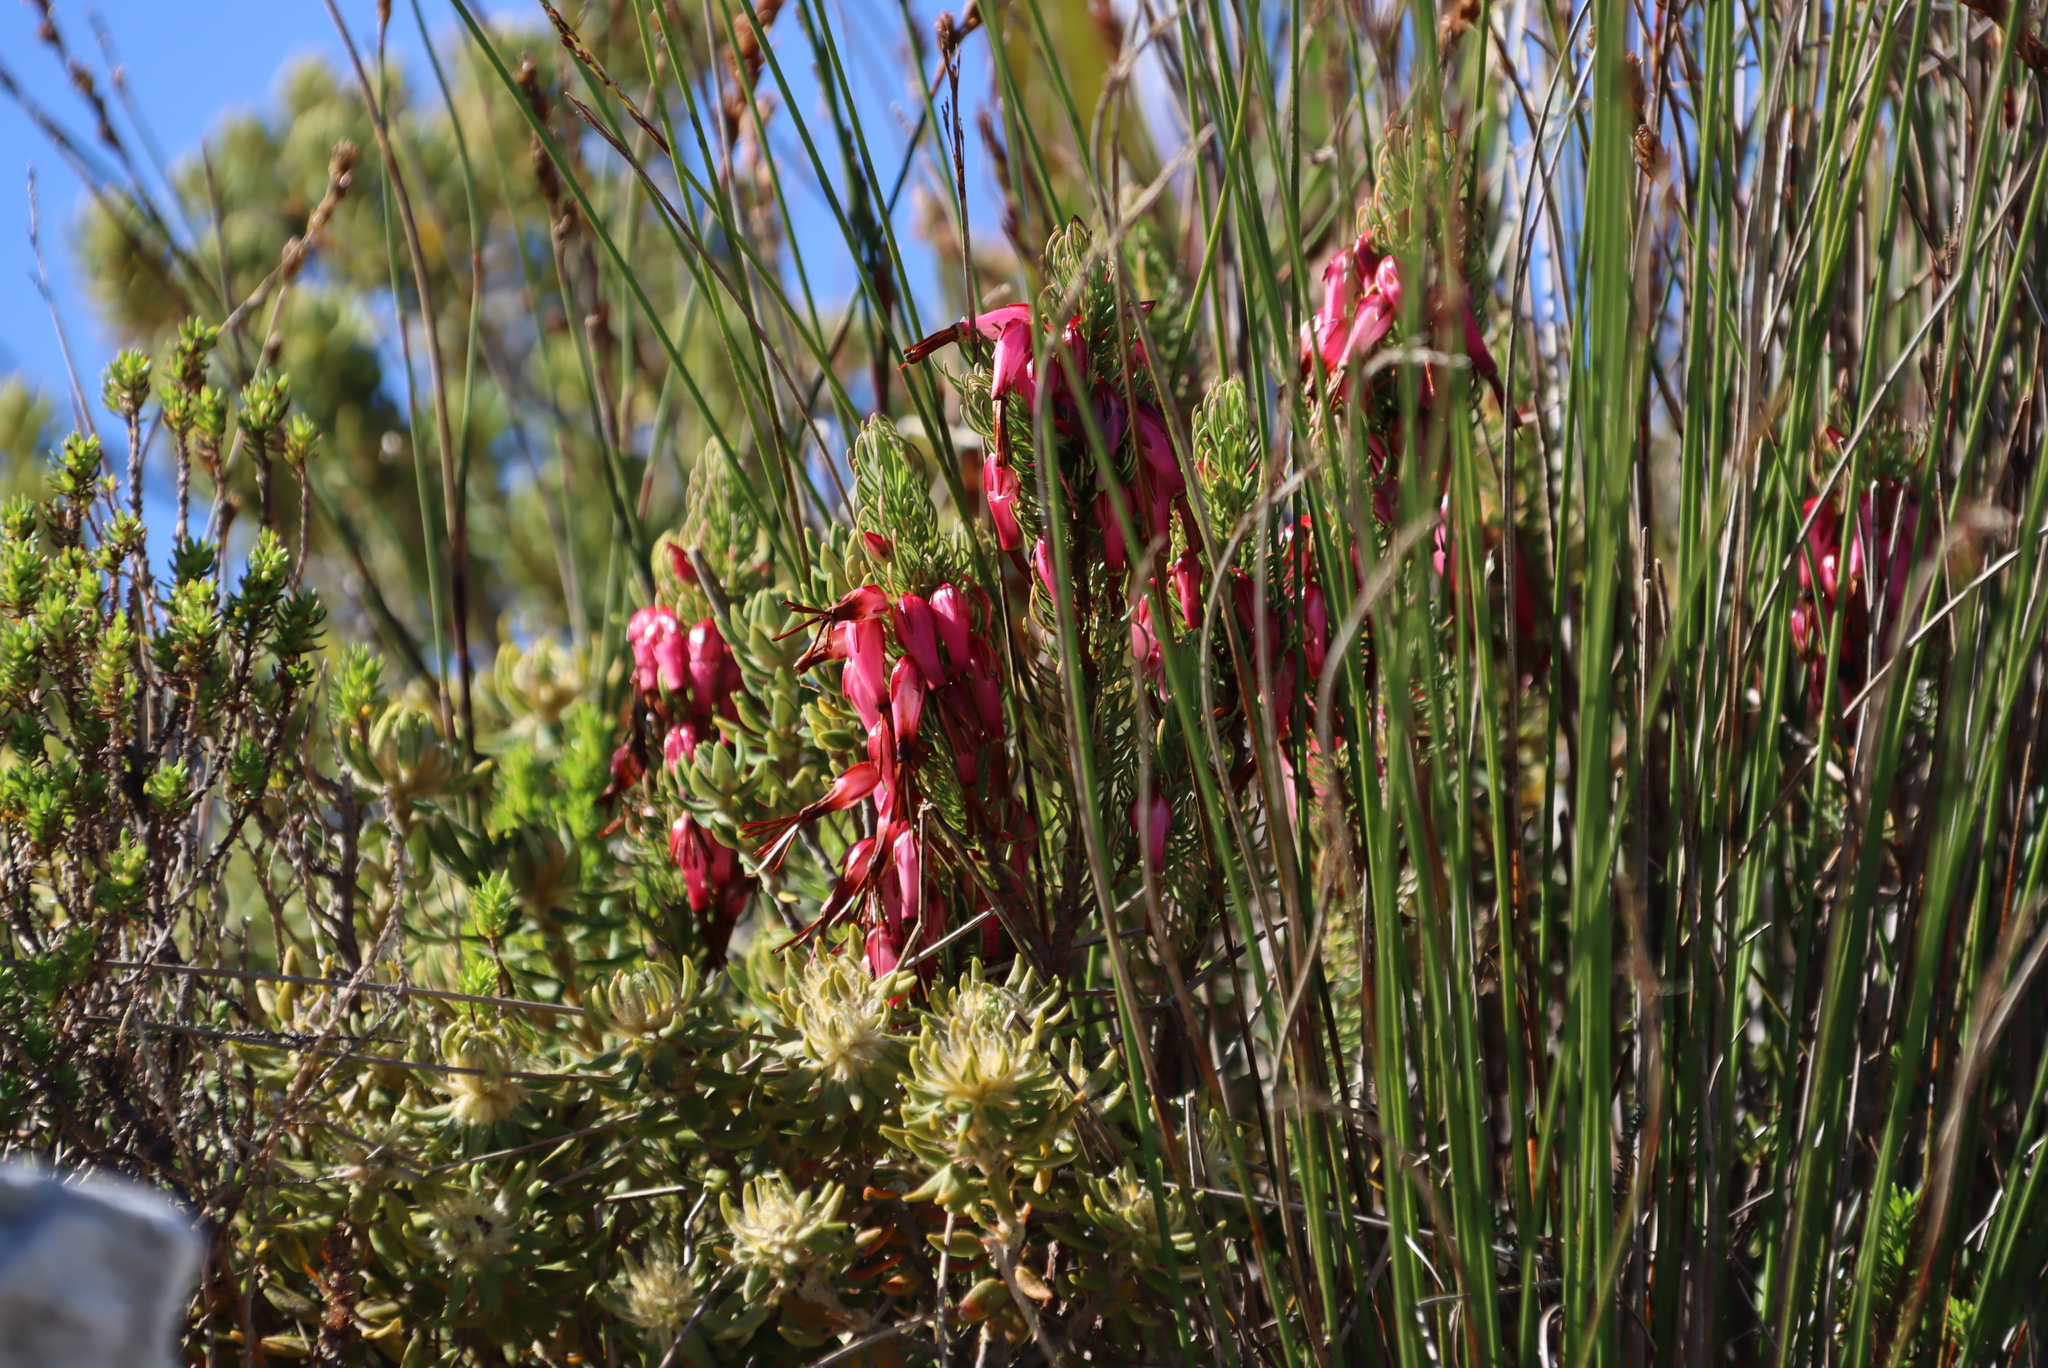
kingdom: Plantae
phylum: Tracheophyta
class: Magnoliopsida
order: Ericales
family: Ericaceae
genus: Erica
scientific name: Erica plukenetii
